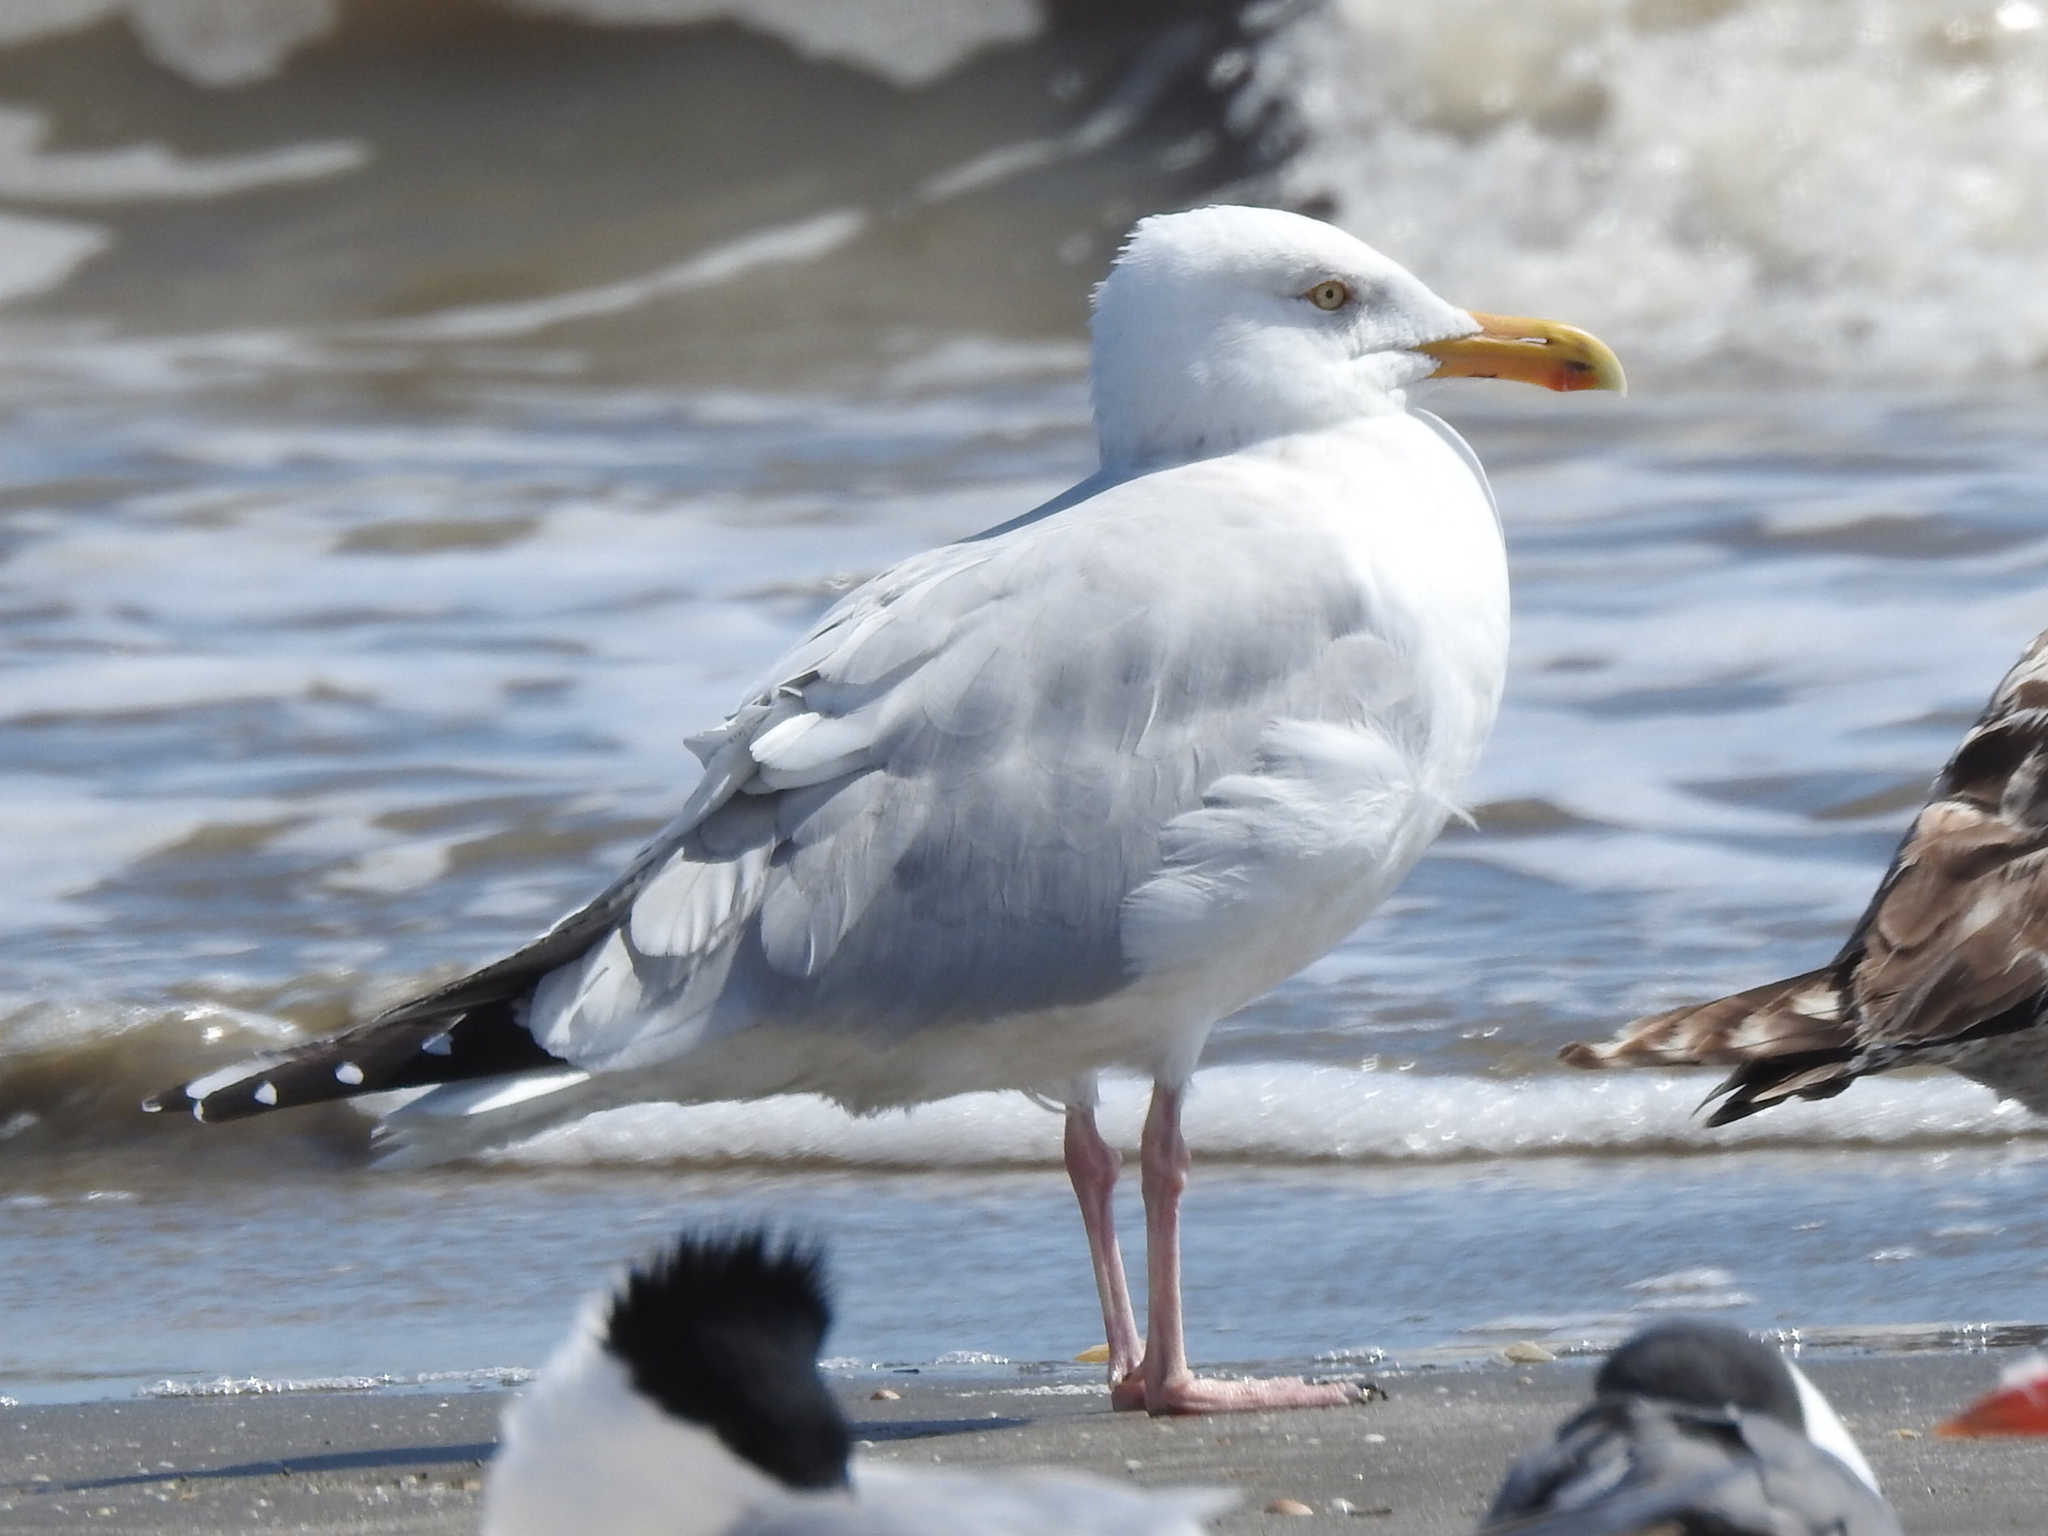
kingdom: Animalia
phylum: Chordata
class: Aves
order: Charadriiformes
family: Laridae
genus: Larus
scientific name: Larus argentatus
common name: Herring gull
